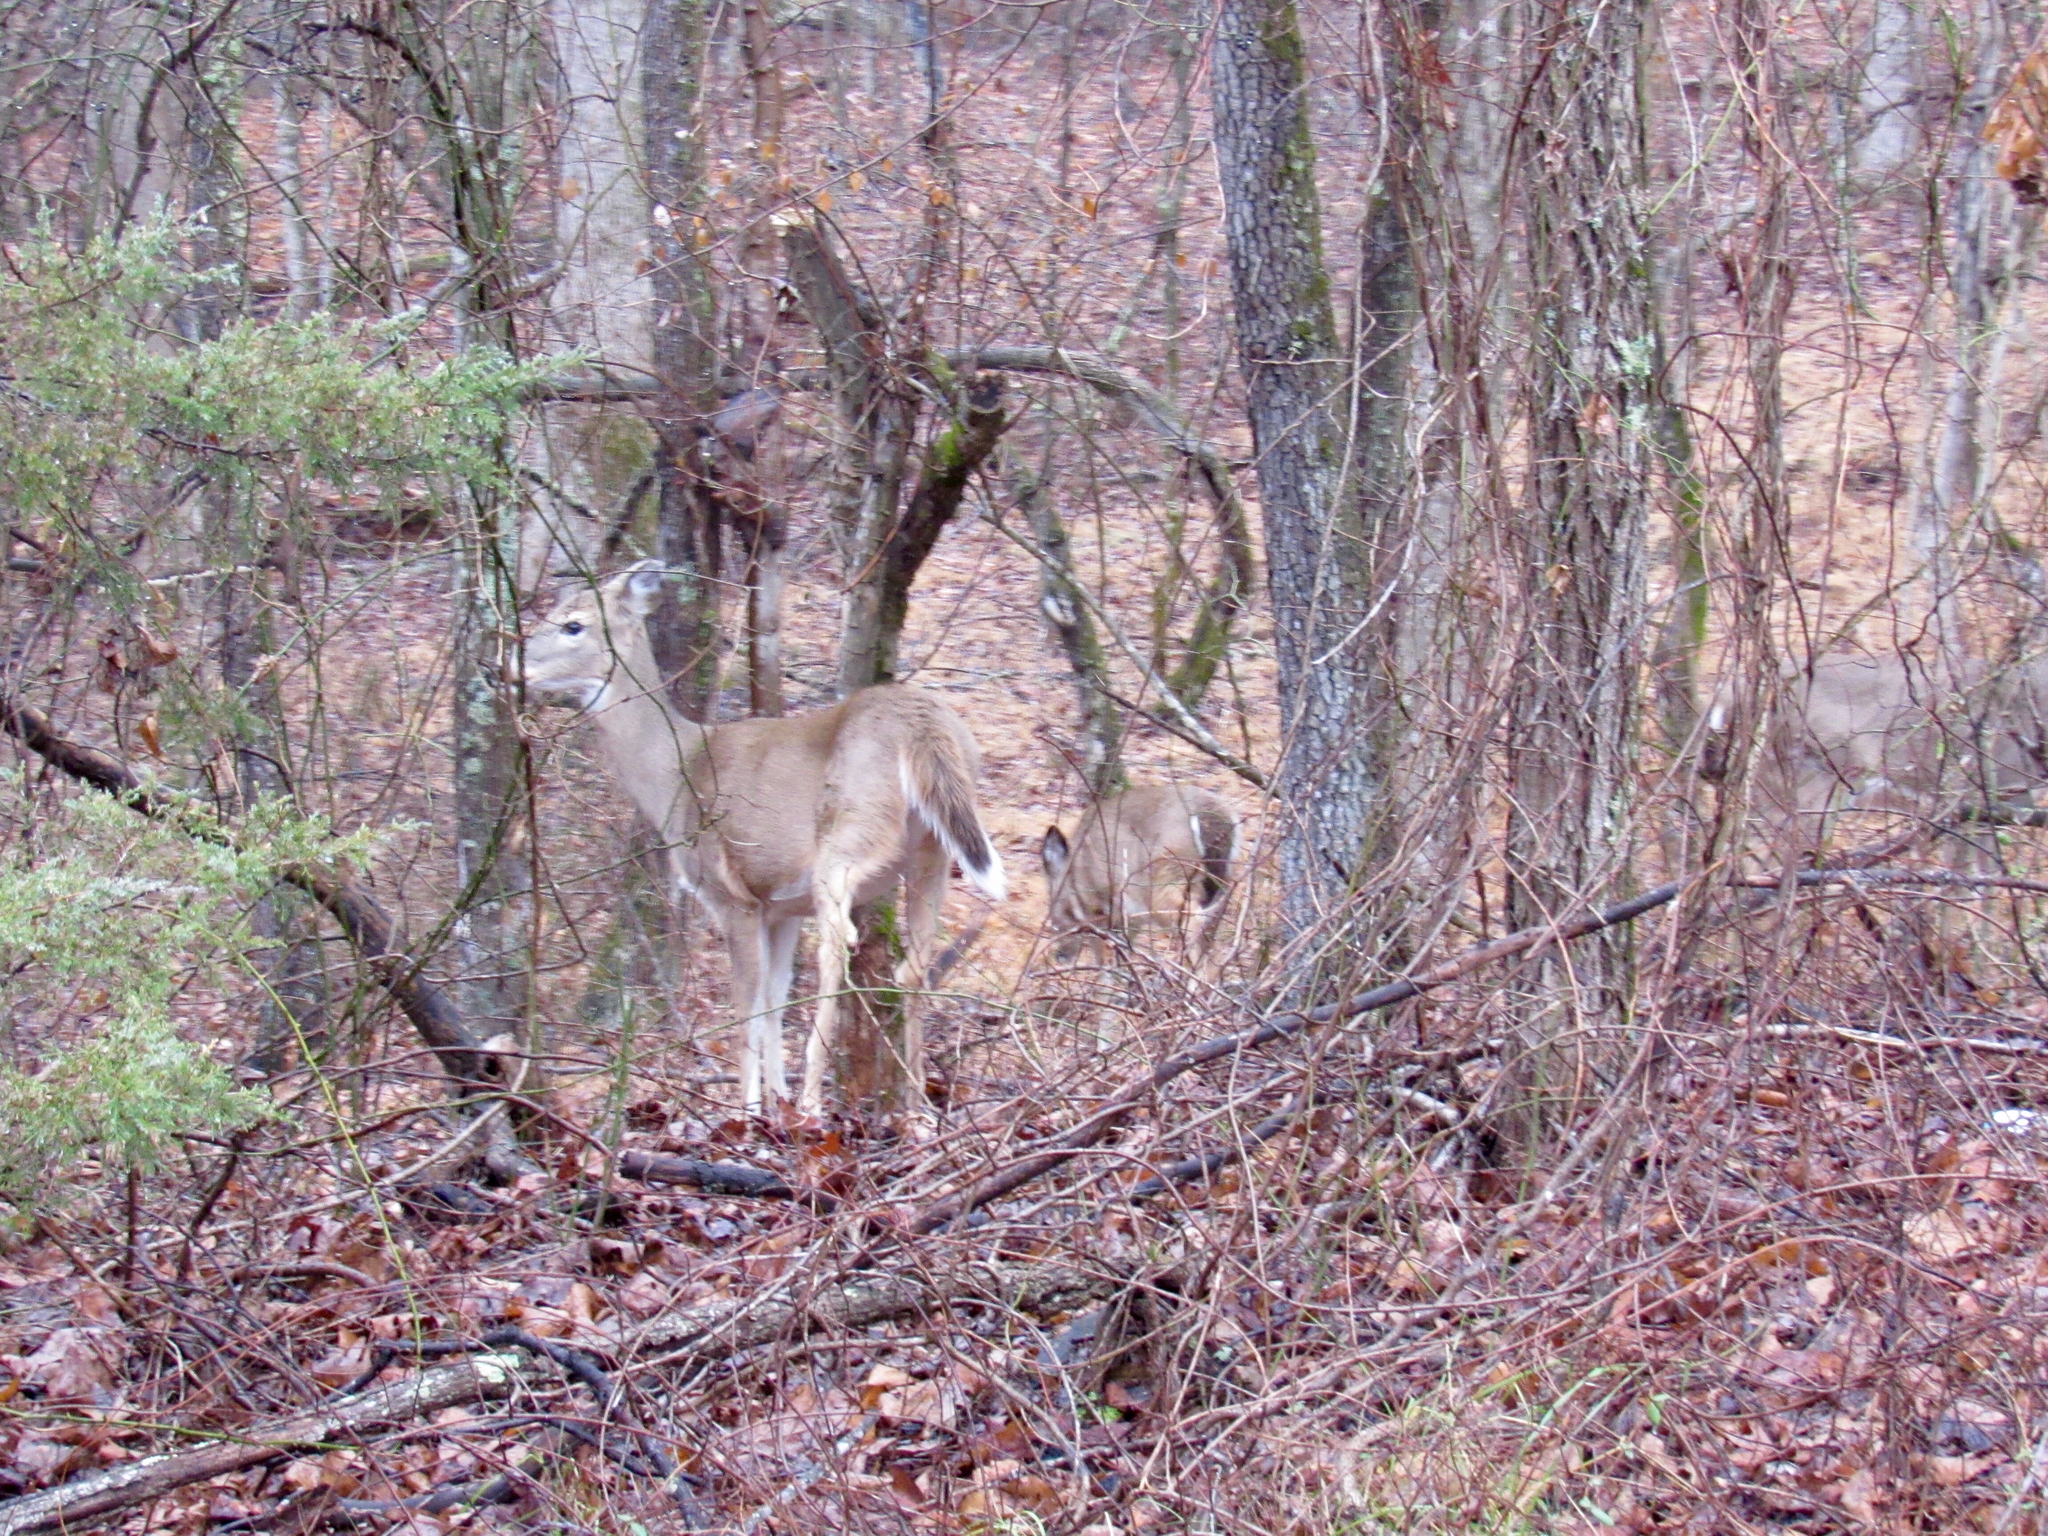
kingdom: Animalia
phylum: Chordata
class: Mammalia
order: Artiodactyla
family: Cervidae
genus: Odocoileus
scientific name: Odocoileus virginianus
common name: White-tailed deer
